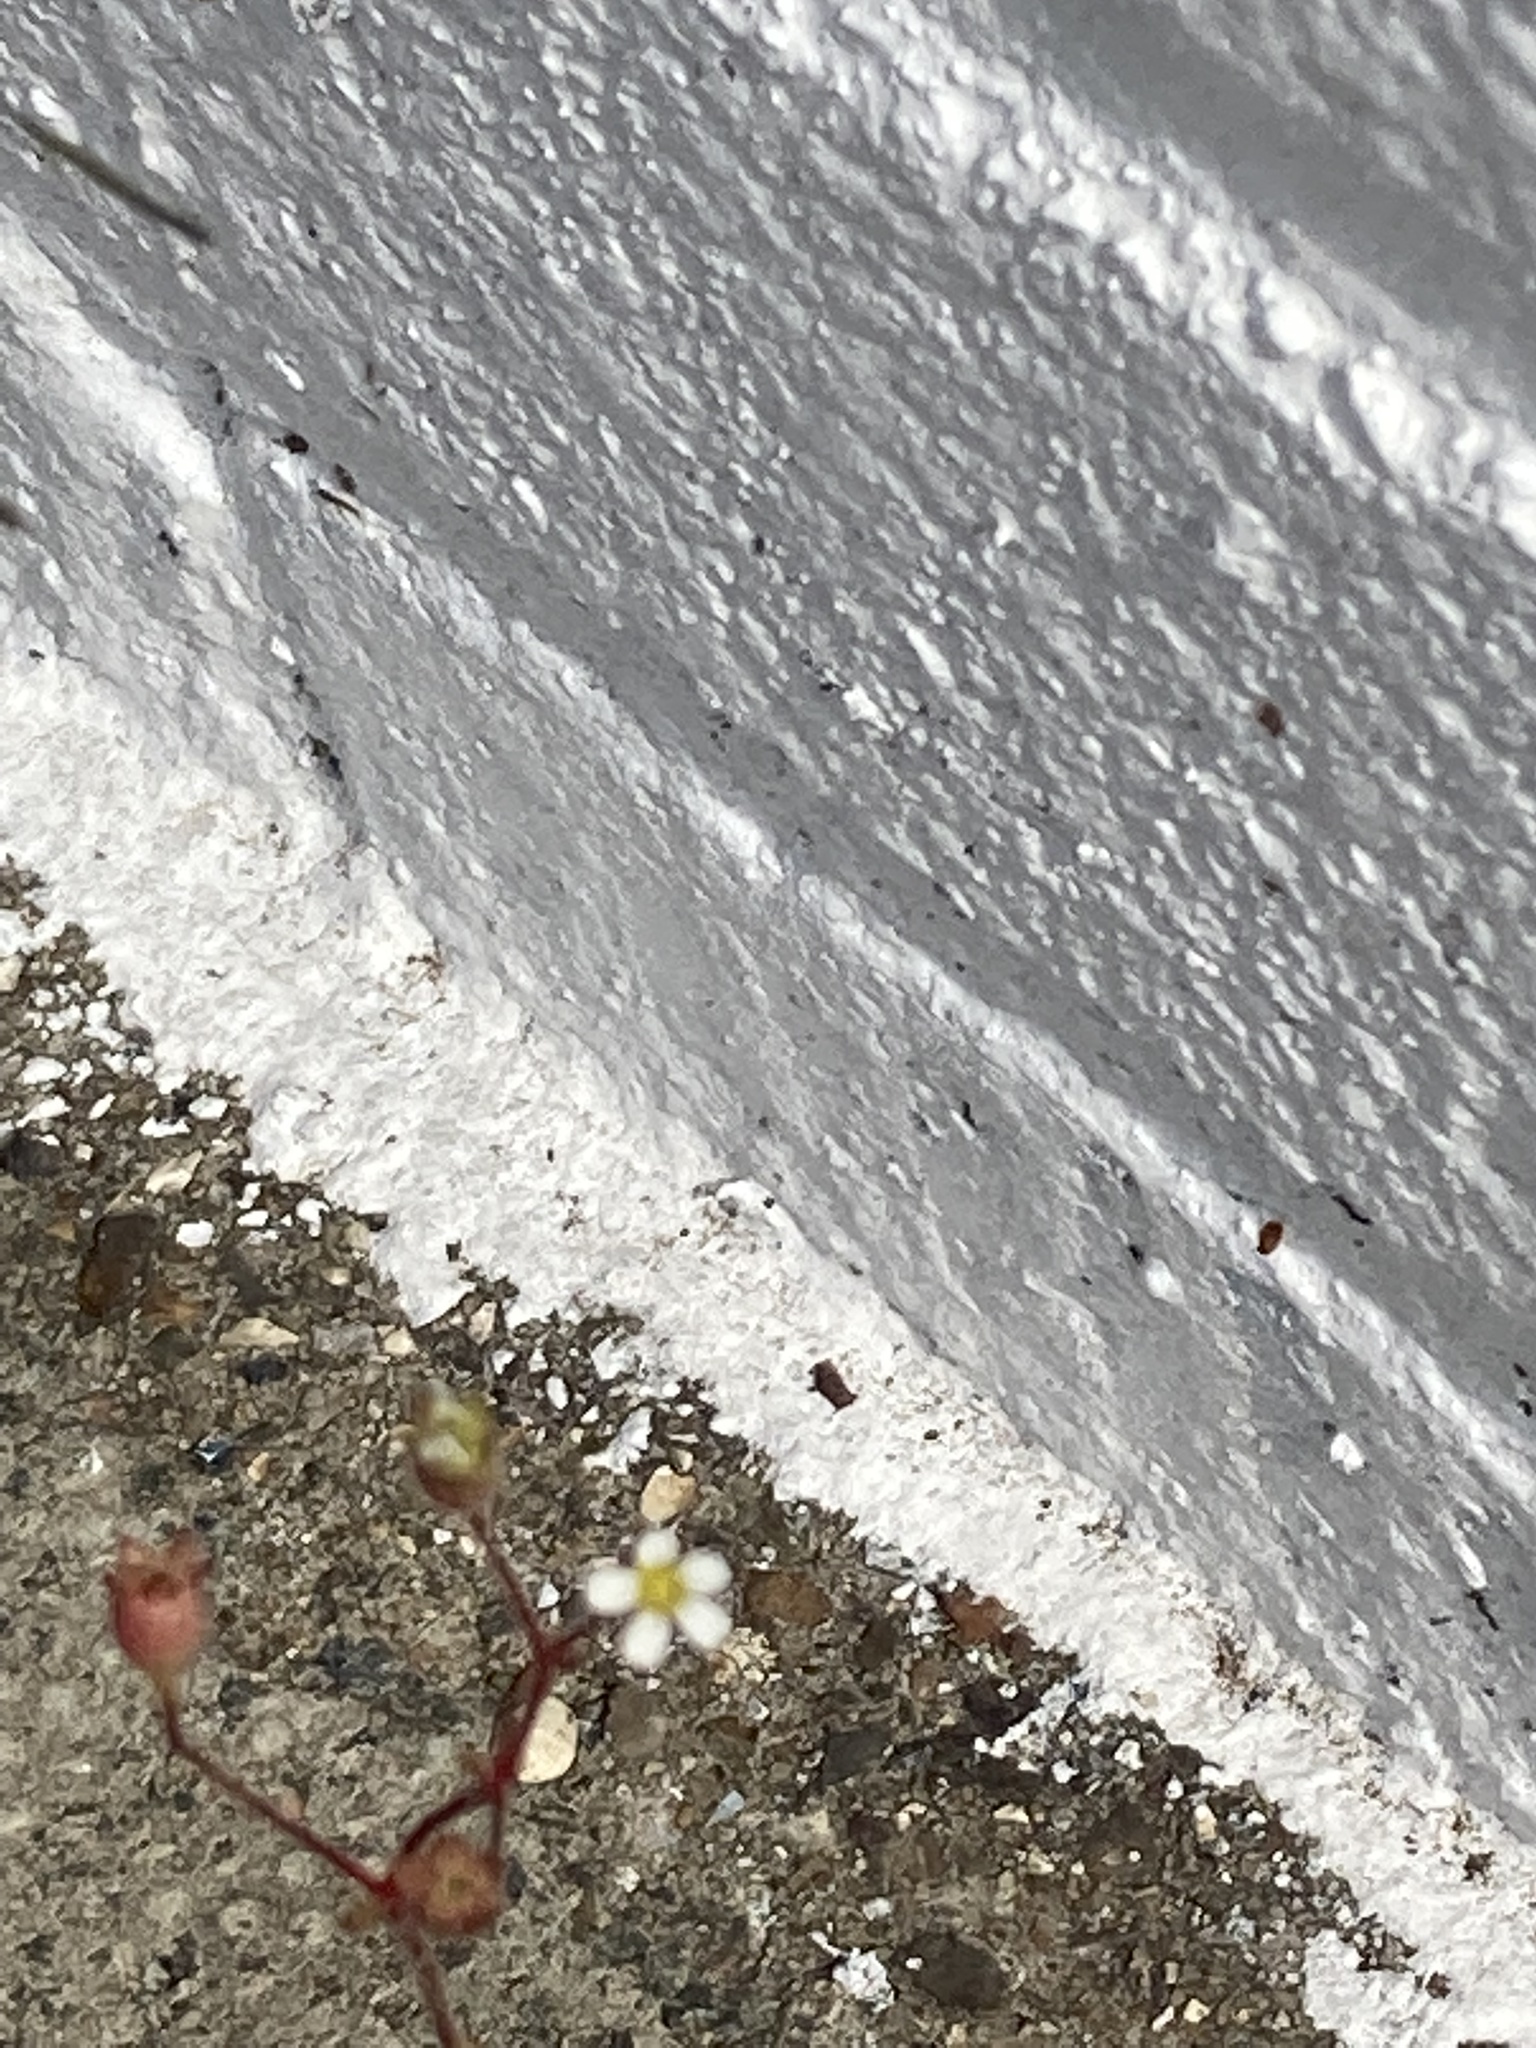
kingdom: Plantae
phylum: Tracheophyta
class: Magnoliopsida
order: Saxifragales
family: Saxifragaceae
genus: Saxifraga
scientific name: Saxifraga tridactylites
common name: Rue-leaved saxifrage
